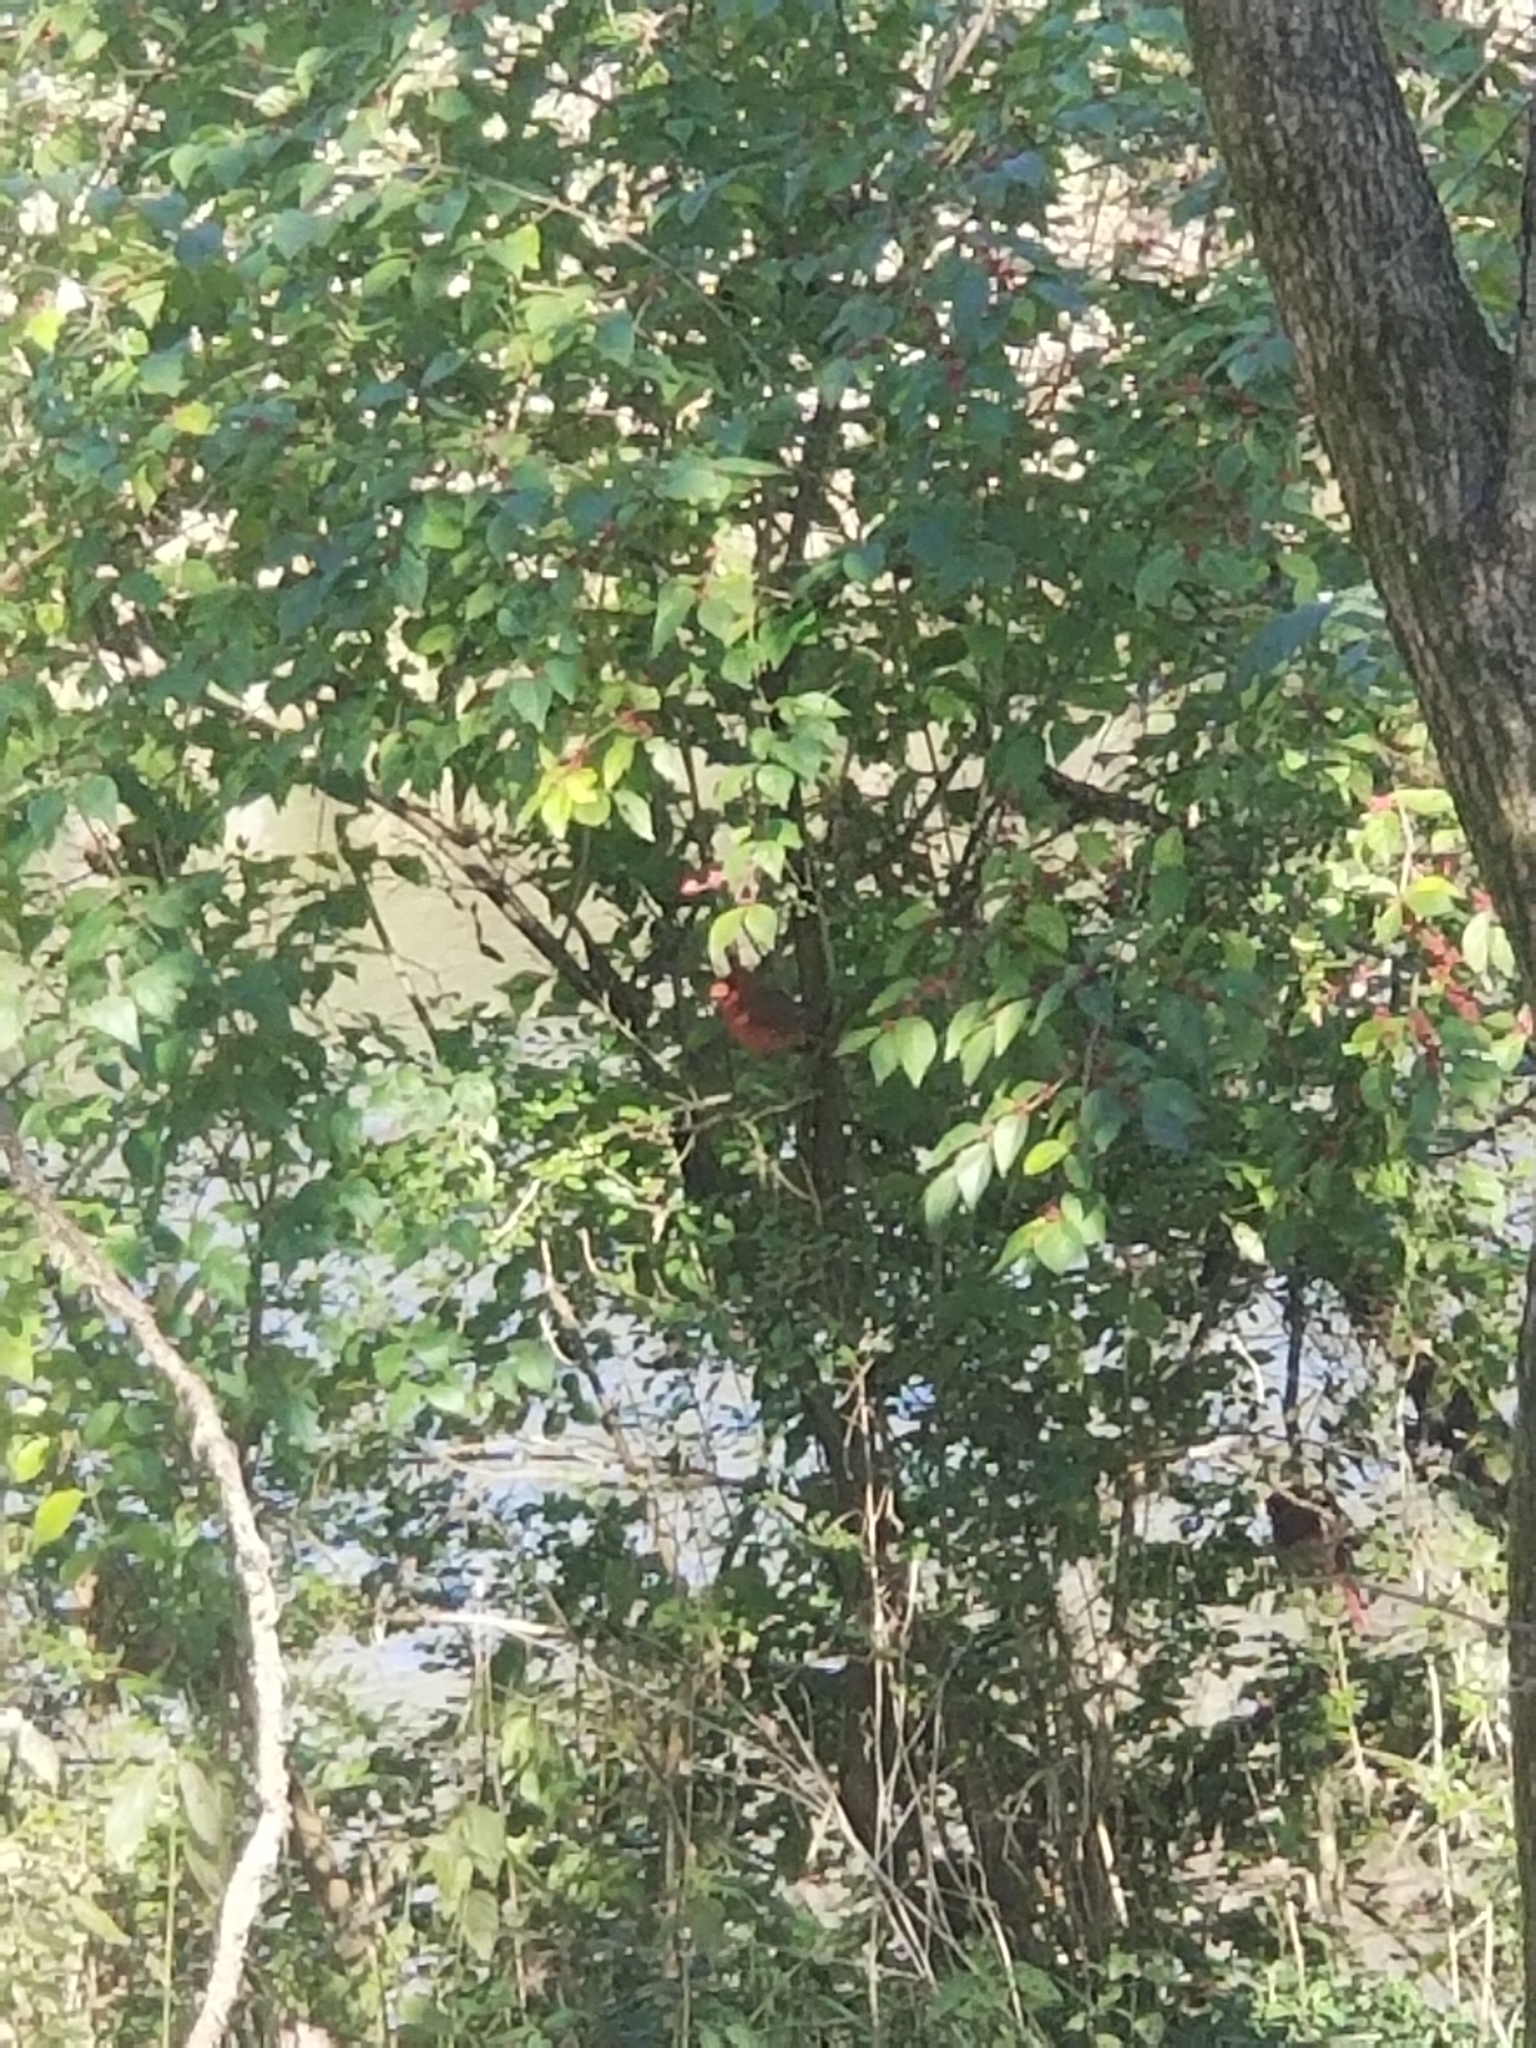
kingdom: Animalia
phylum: Chordata
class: Aves
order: Passeriformes
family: Cardinalidae
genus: Cardinalis
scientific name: Cardinalis cardinalis
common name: Northern cardinal
